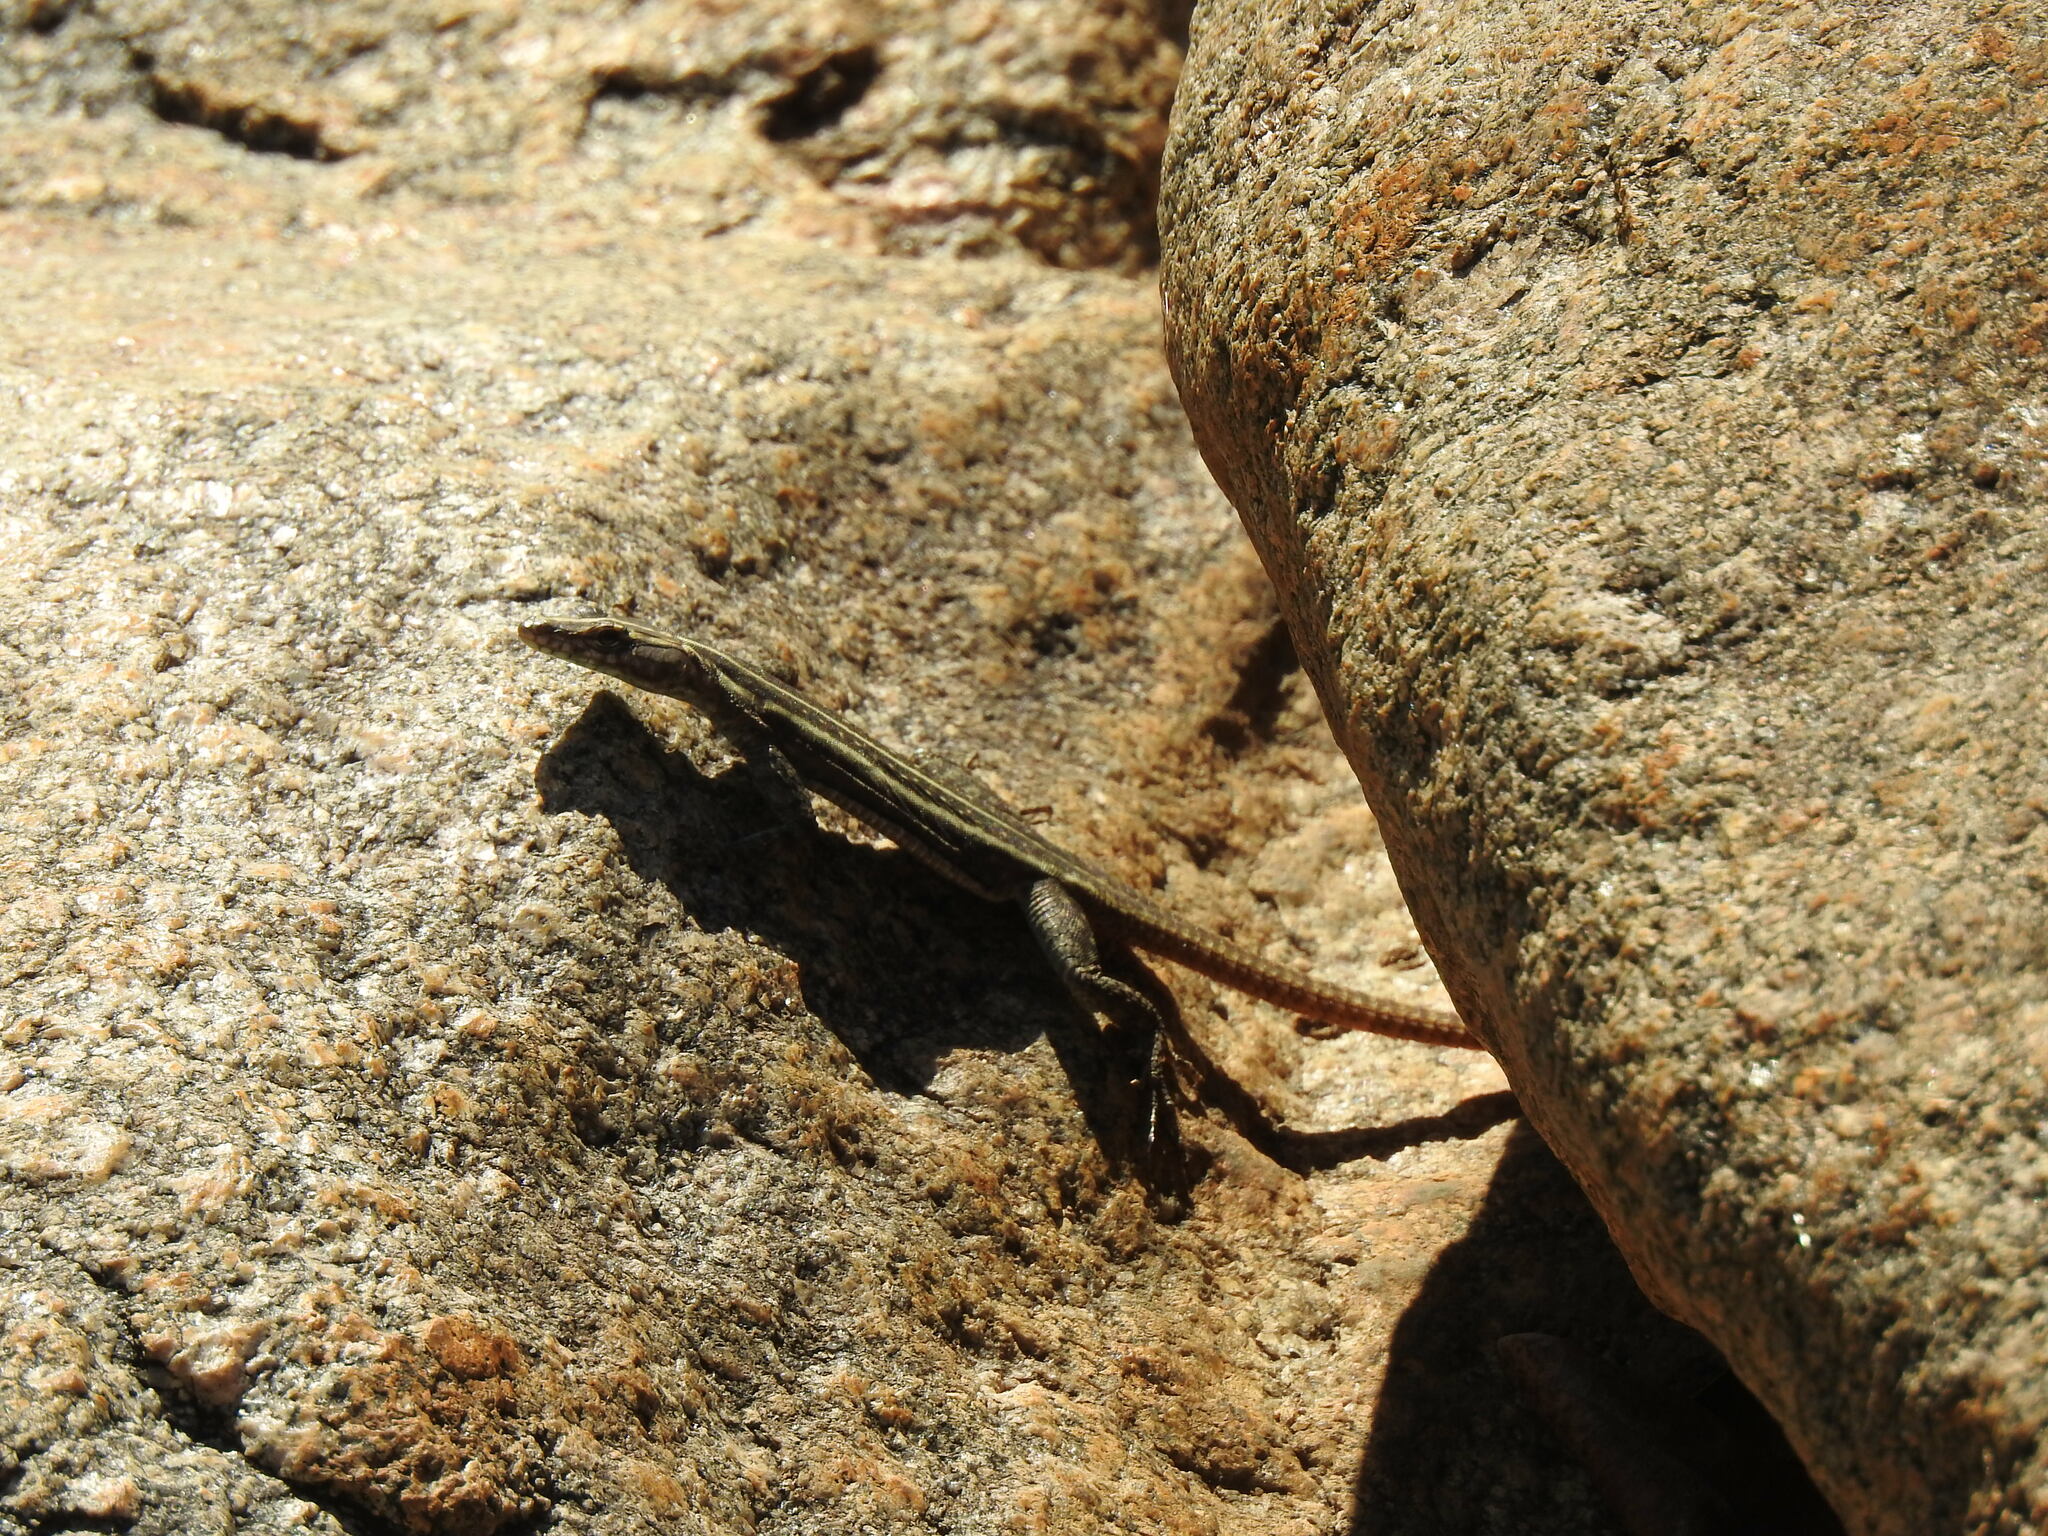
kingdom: Animalia
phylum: Chordata
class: Squamata
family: Cordylidae
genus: Platysaurus
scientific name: Platysaurus intermedius
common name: Common flat lizard
